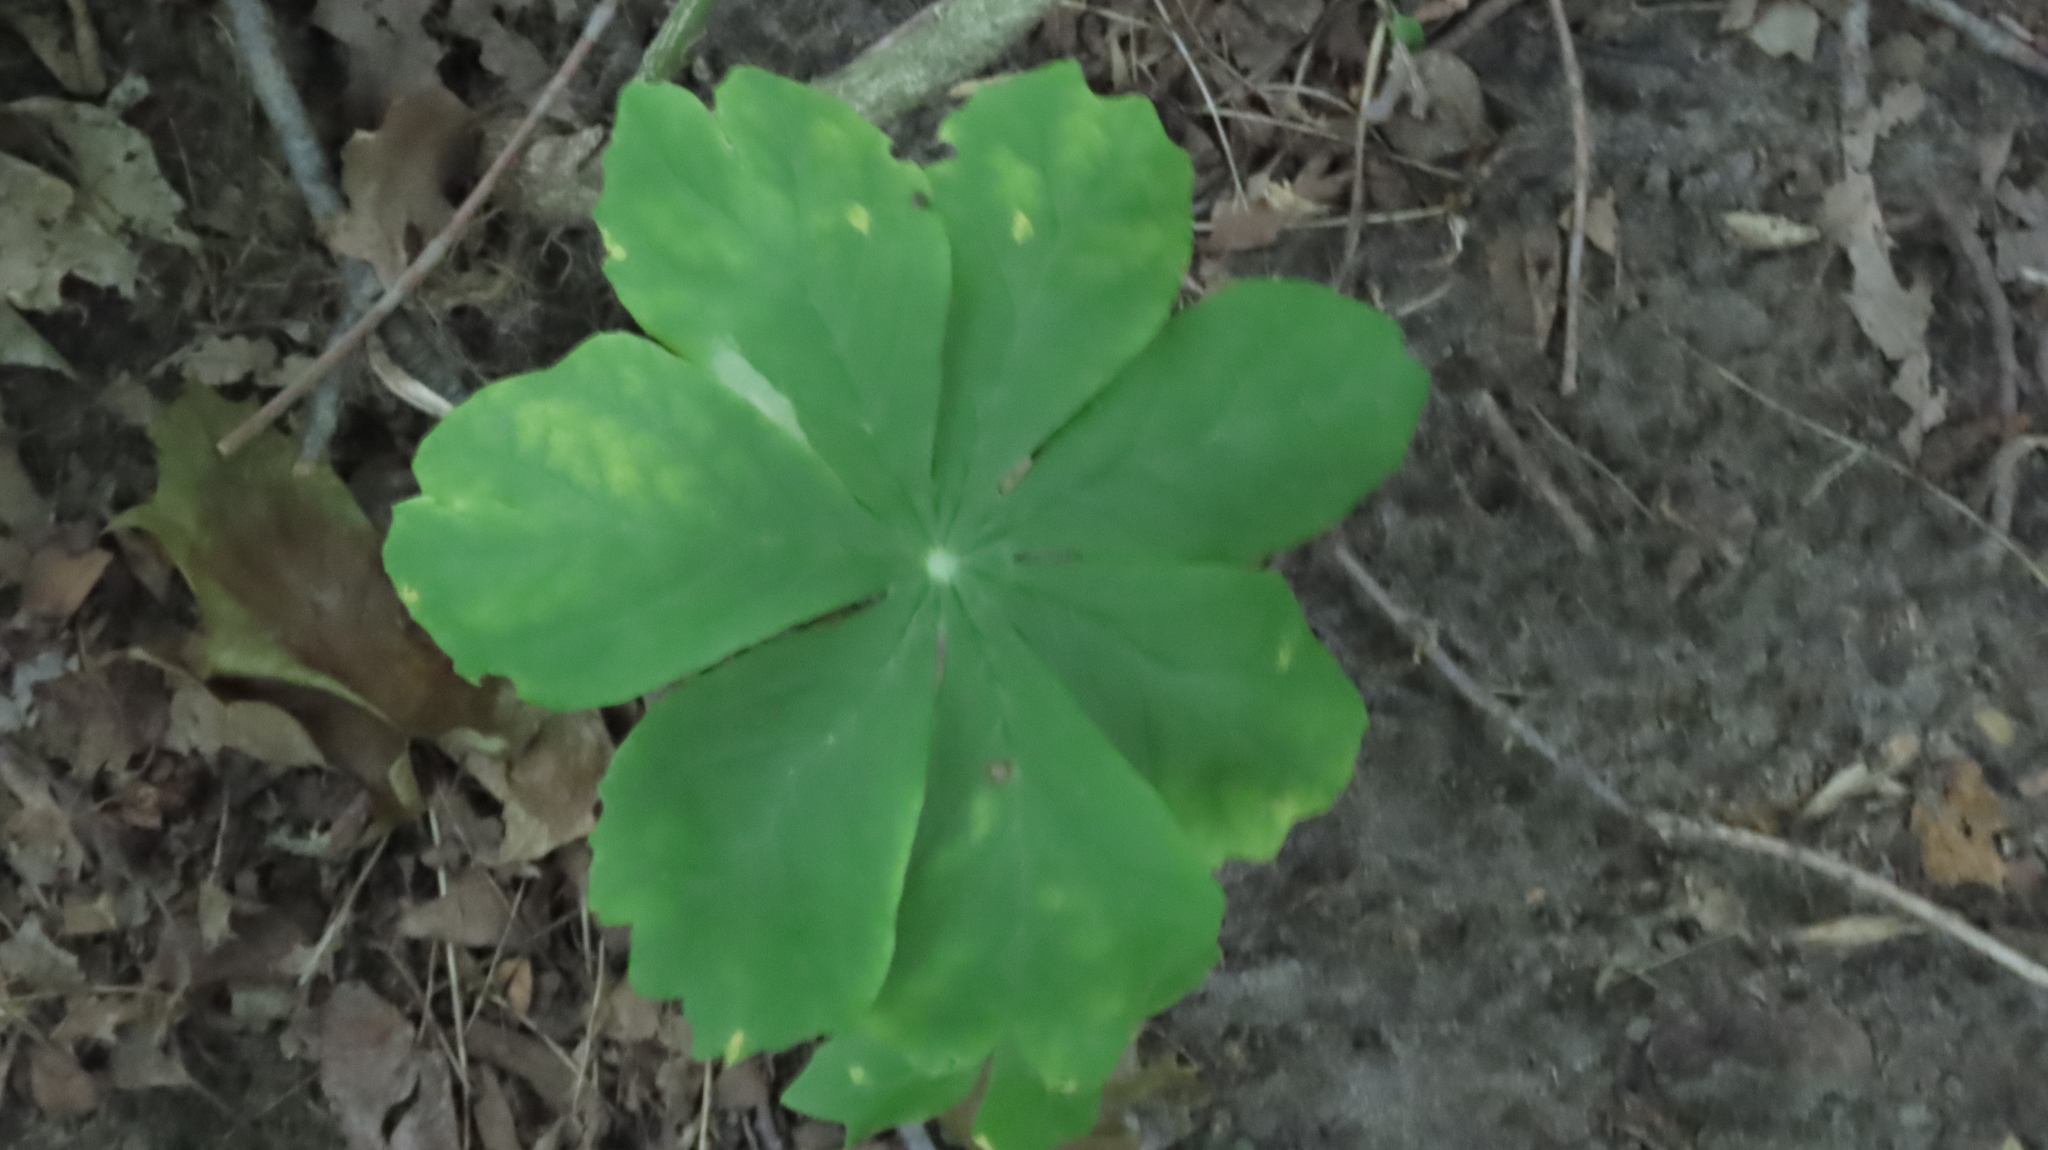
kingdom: Plantae
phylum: Tracheophyta
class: Magnoliopsida
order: Ranunculales
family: Berberidaceae
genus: Podophyllum
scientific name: Podophyllum peltatum
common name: Wild mandrake
